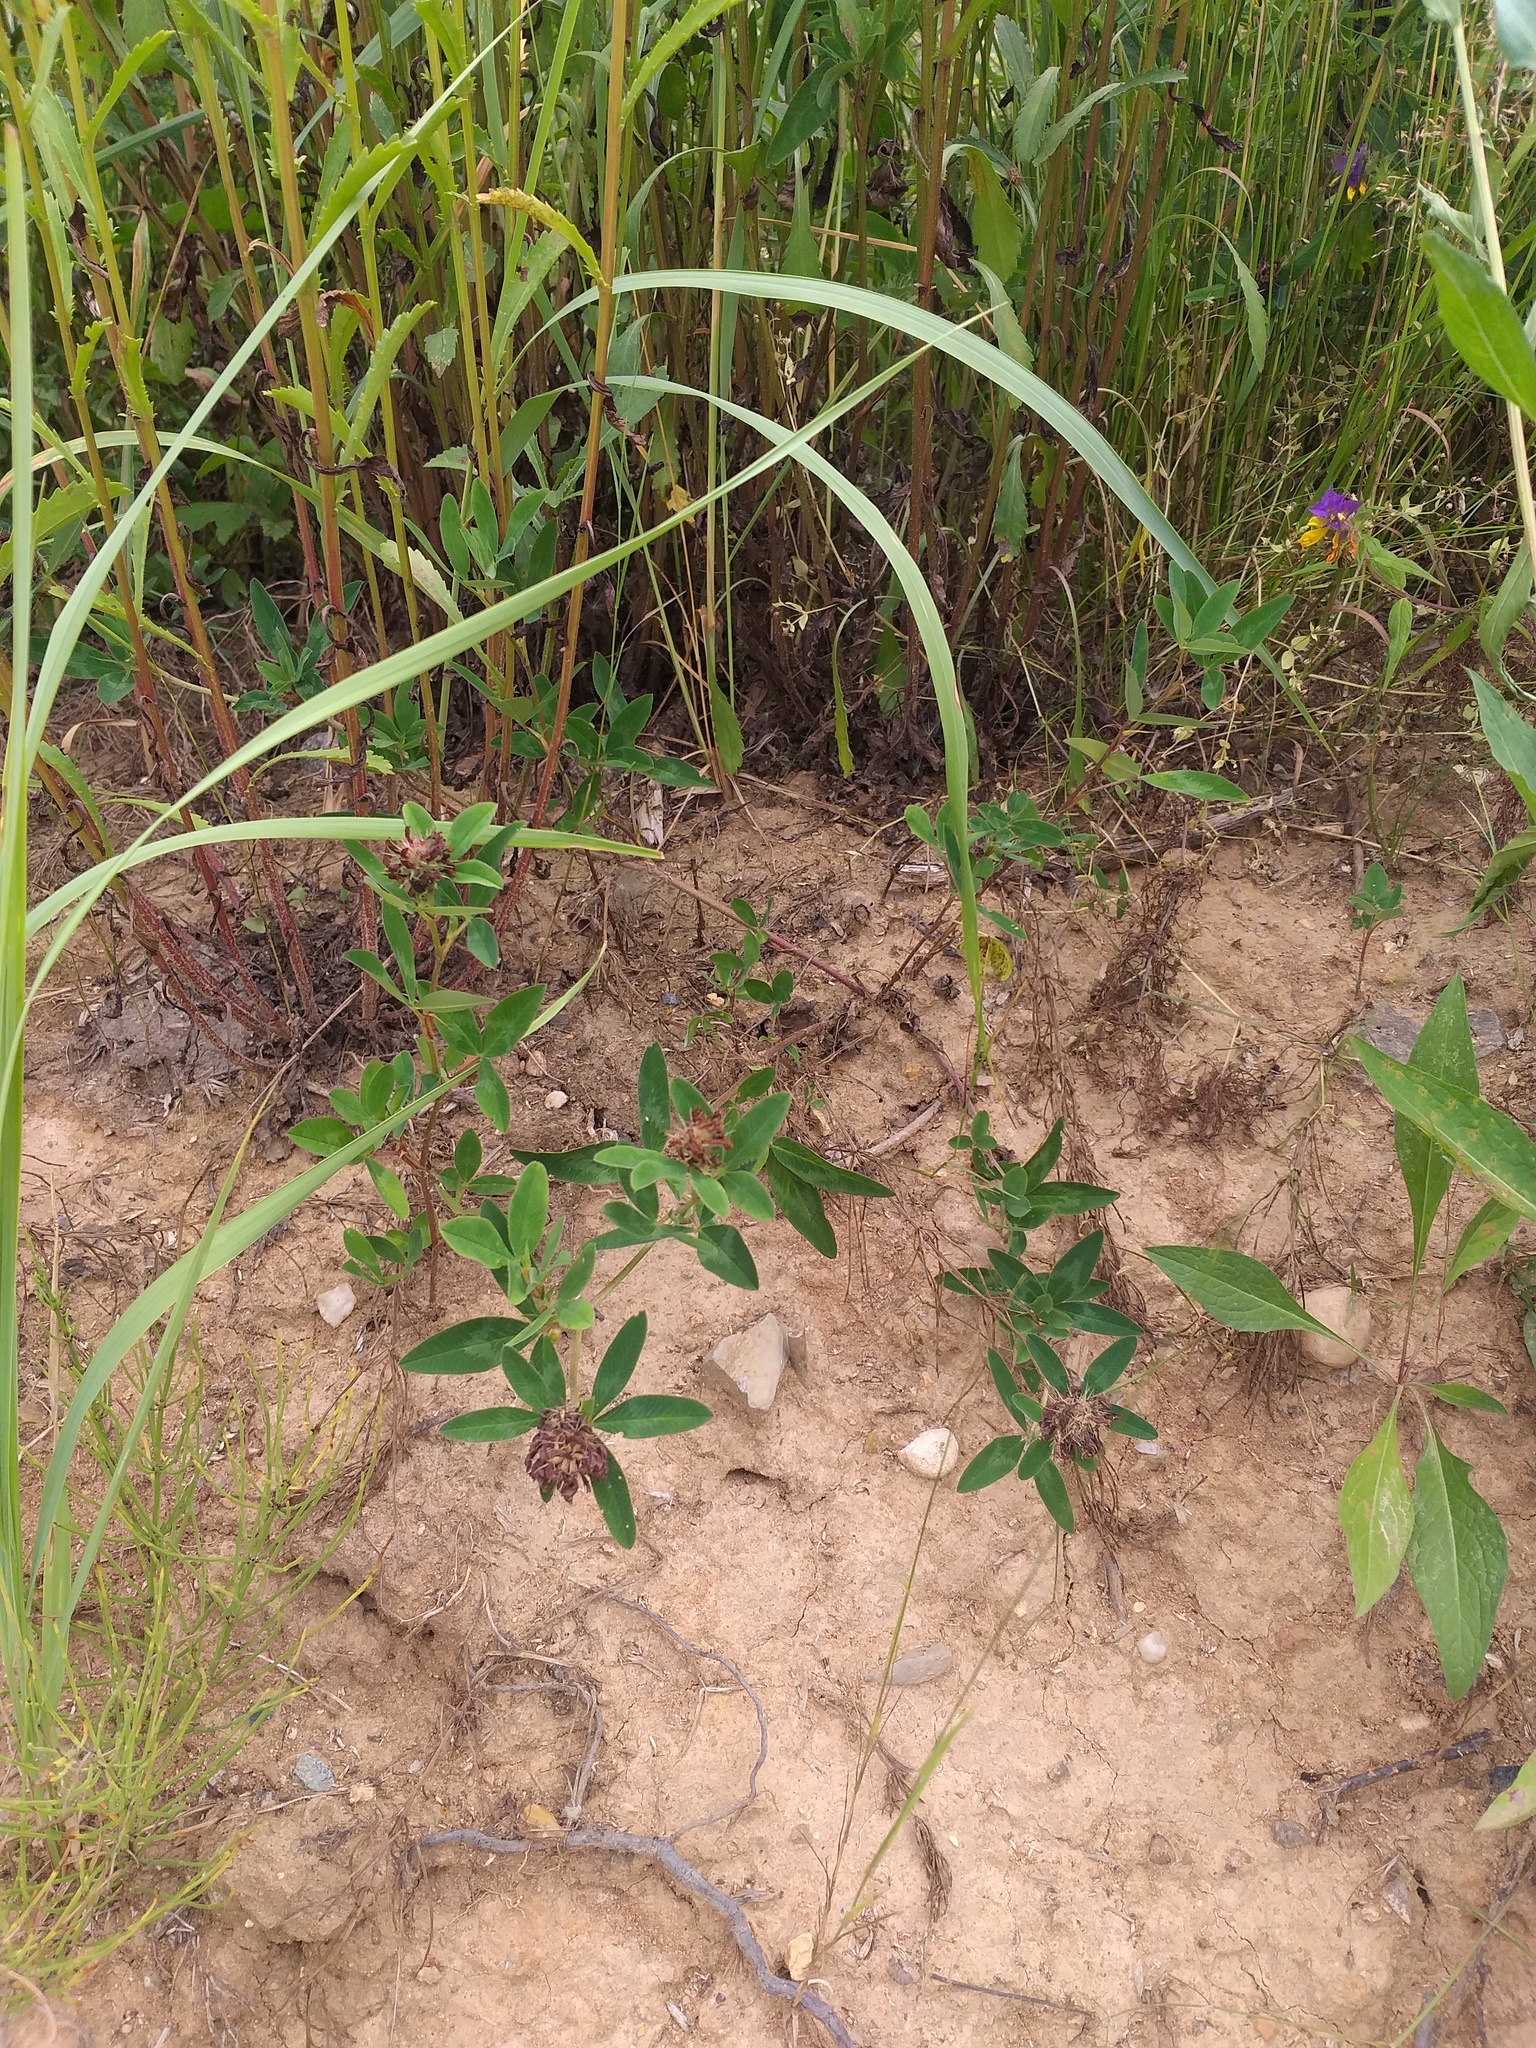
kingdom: Plantae
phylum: Tracheophyta
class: Magnoliopsida
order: Fabales
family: Fabaceae
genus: Trifolium
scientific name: Trifolium pratense
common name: Red clover
